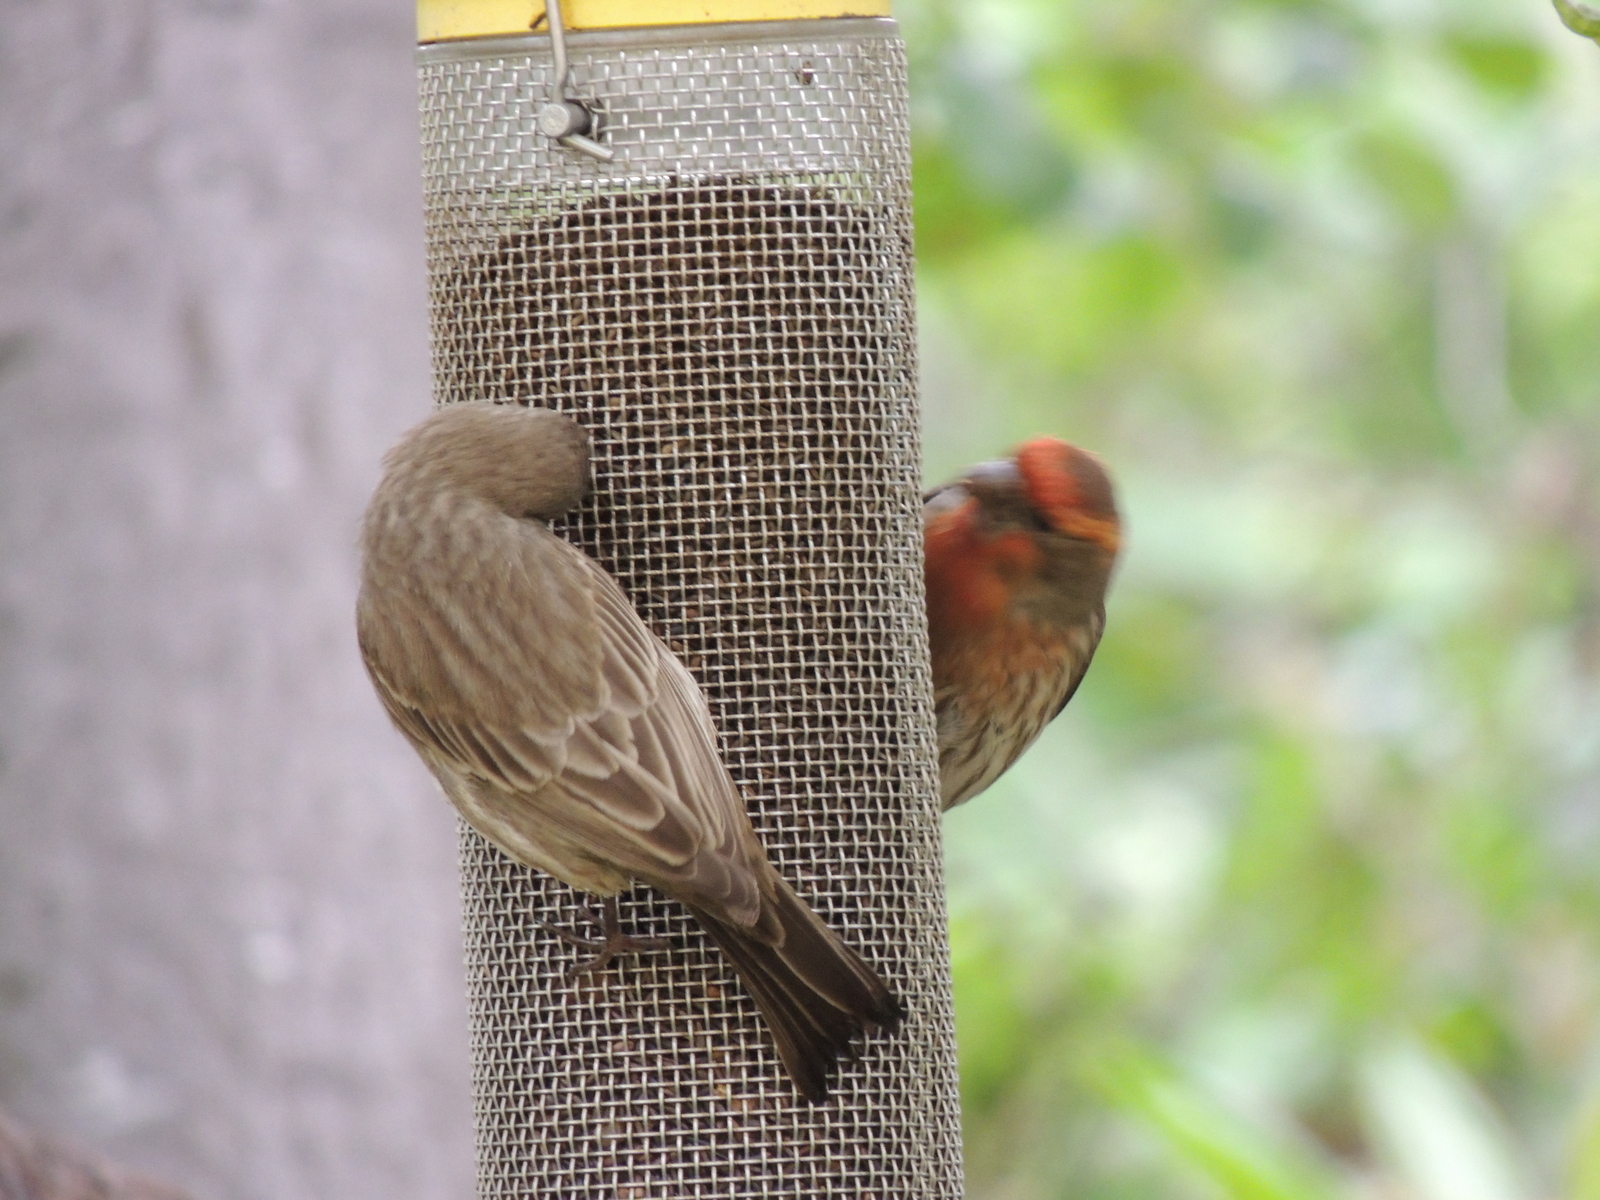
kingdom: Animalia
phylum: Chordata
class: Aves
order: Passeriformes
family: Fringillidae
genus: Haemorhous
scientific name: Haemorhous mexicanus
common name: House finch
